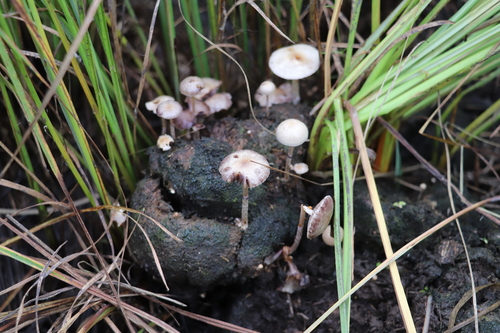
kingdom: Fungi
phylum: Basidiomycota
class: Agaricomycetes
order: Agaricales
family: Agaricaceae
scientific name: Agaricaceae
